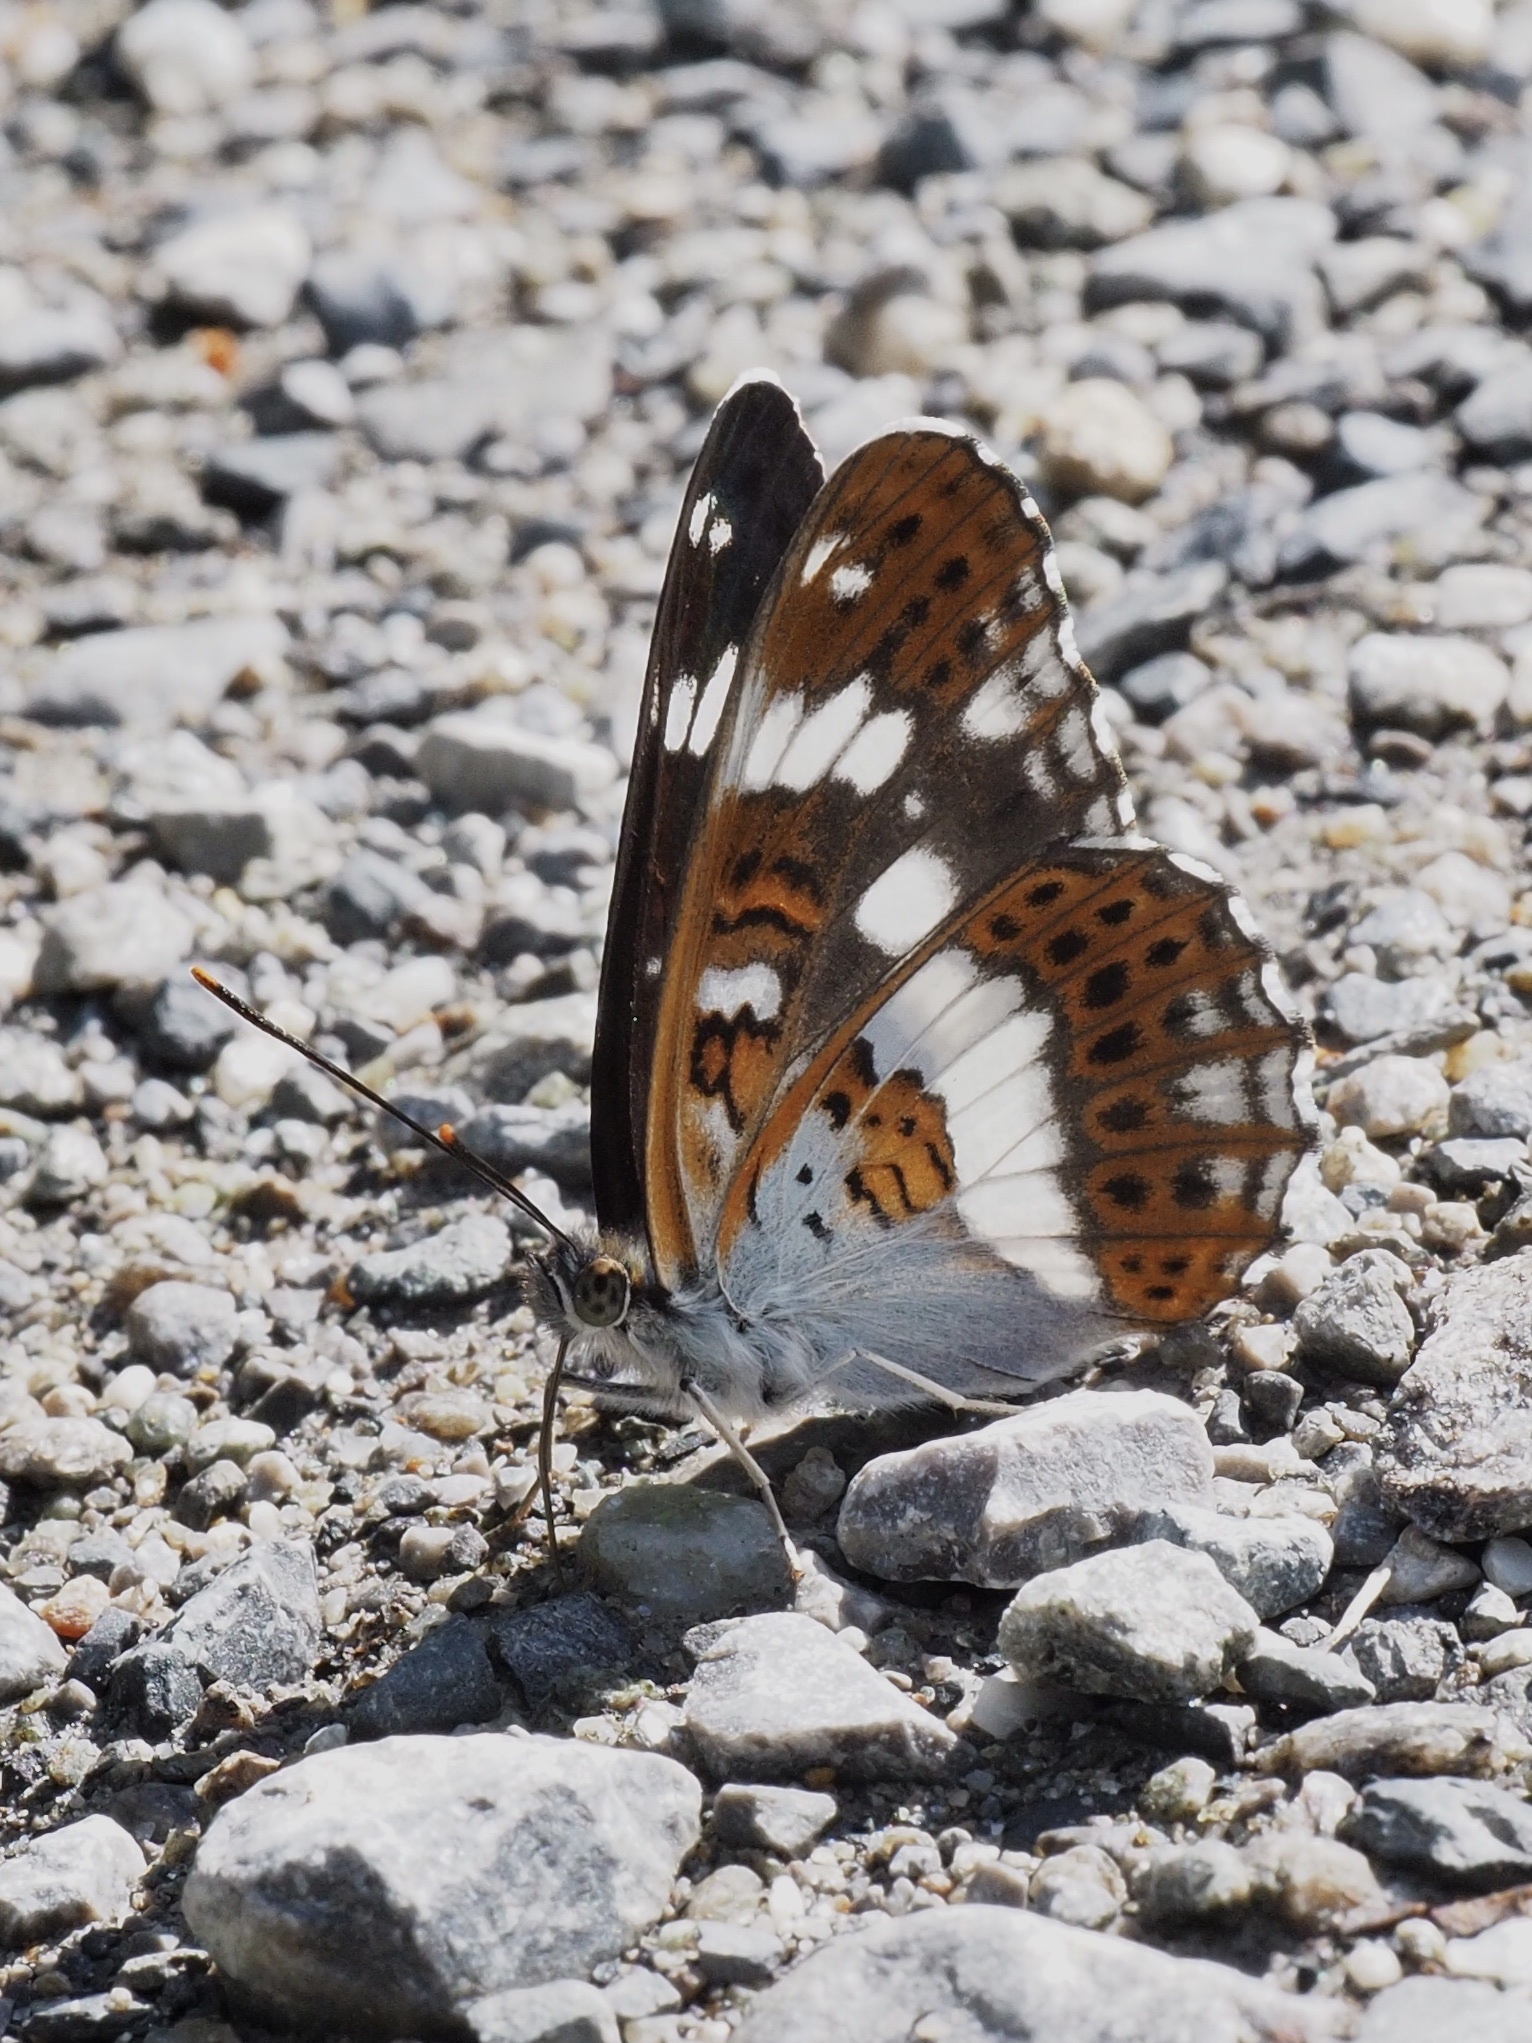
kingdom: Animalia
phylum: Arthropoda
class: Insecta
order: Lepidoptera
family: Nymphalidae
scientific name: Nymphalidae
